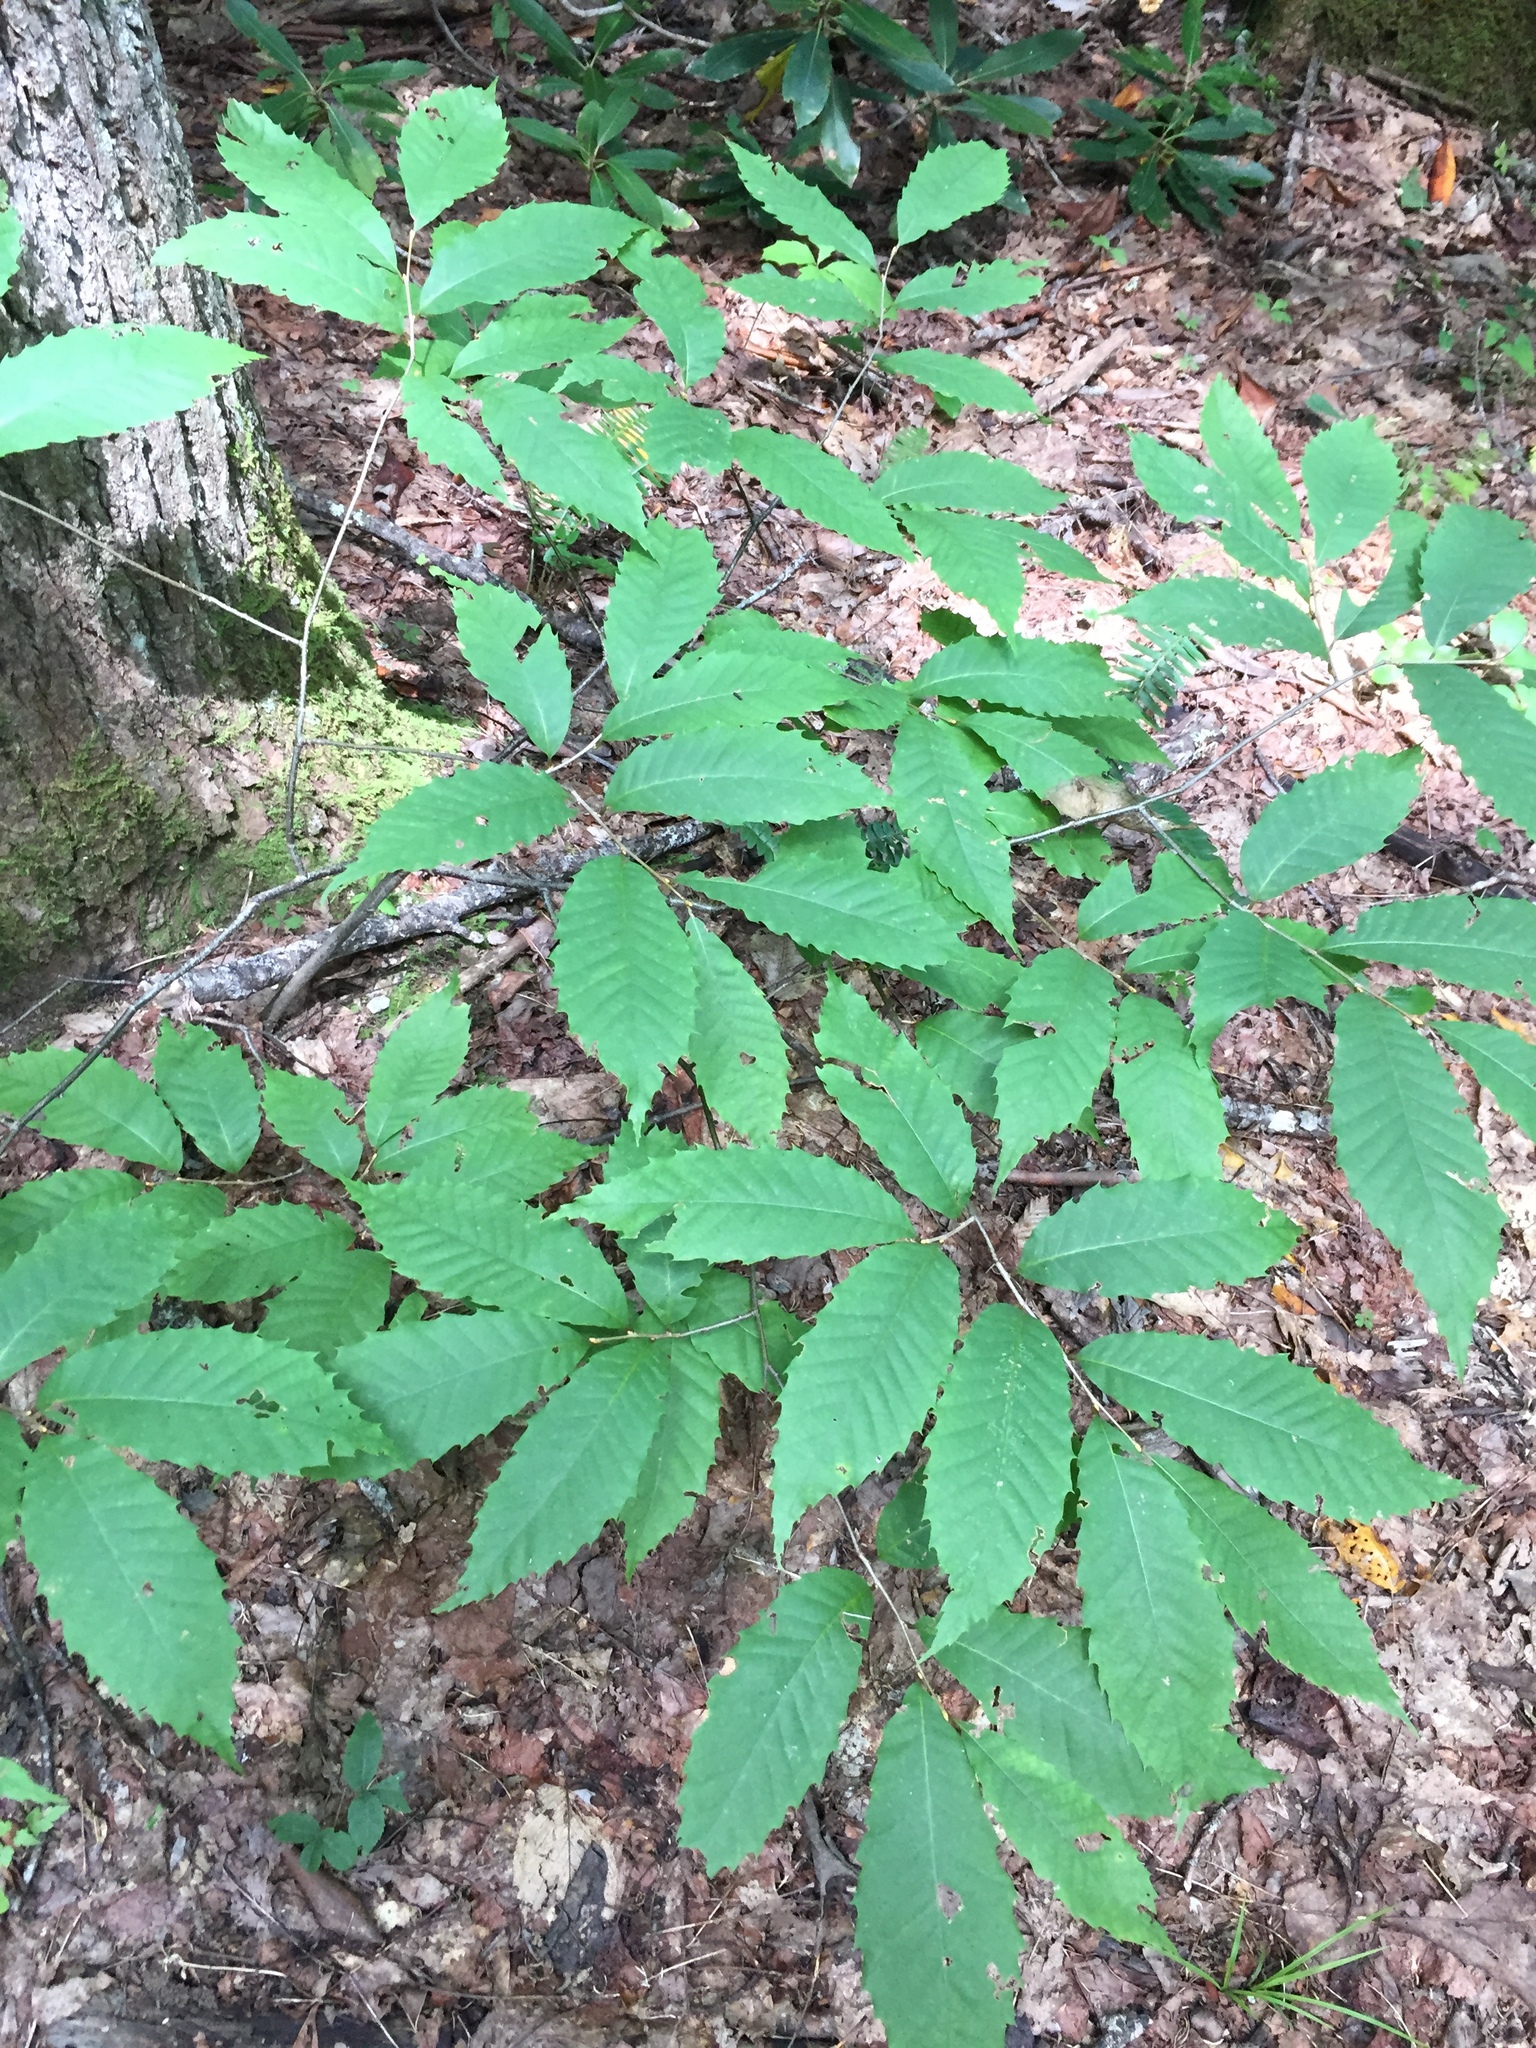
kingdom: Plantae
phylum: Tracheophyta
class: Magnoliopsida
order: Fagales
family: Fagaceae
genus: Castanea
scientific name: Castanea dentata
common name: American chestnut
